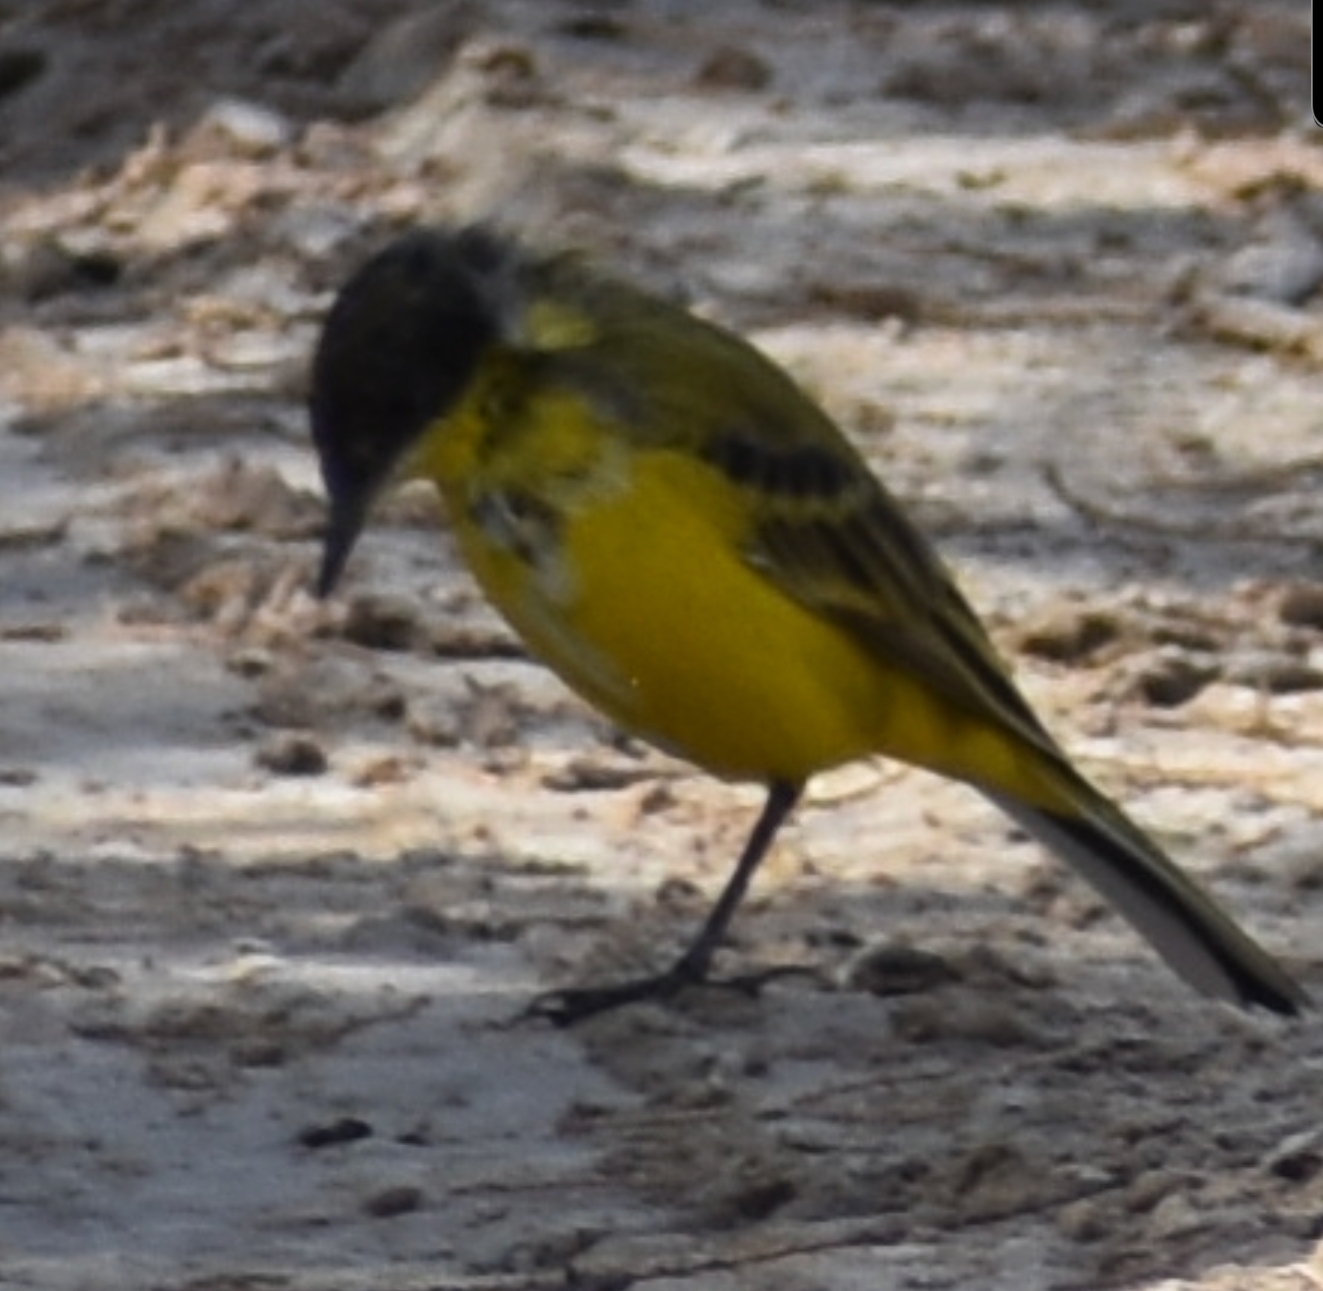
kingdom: Animalia
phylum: Chordata
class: Aves
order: Passeriformes
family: Motacillidae
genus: Motacilla
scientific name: Motacilla flava
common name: Western yellow wagtail
